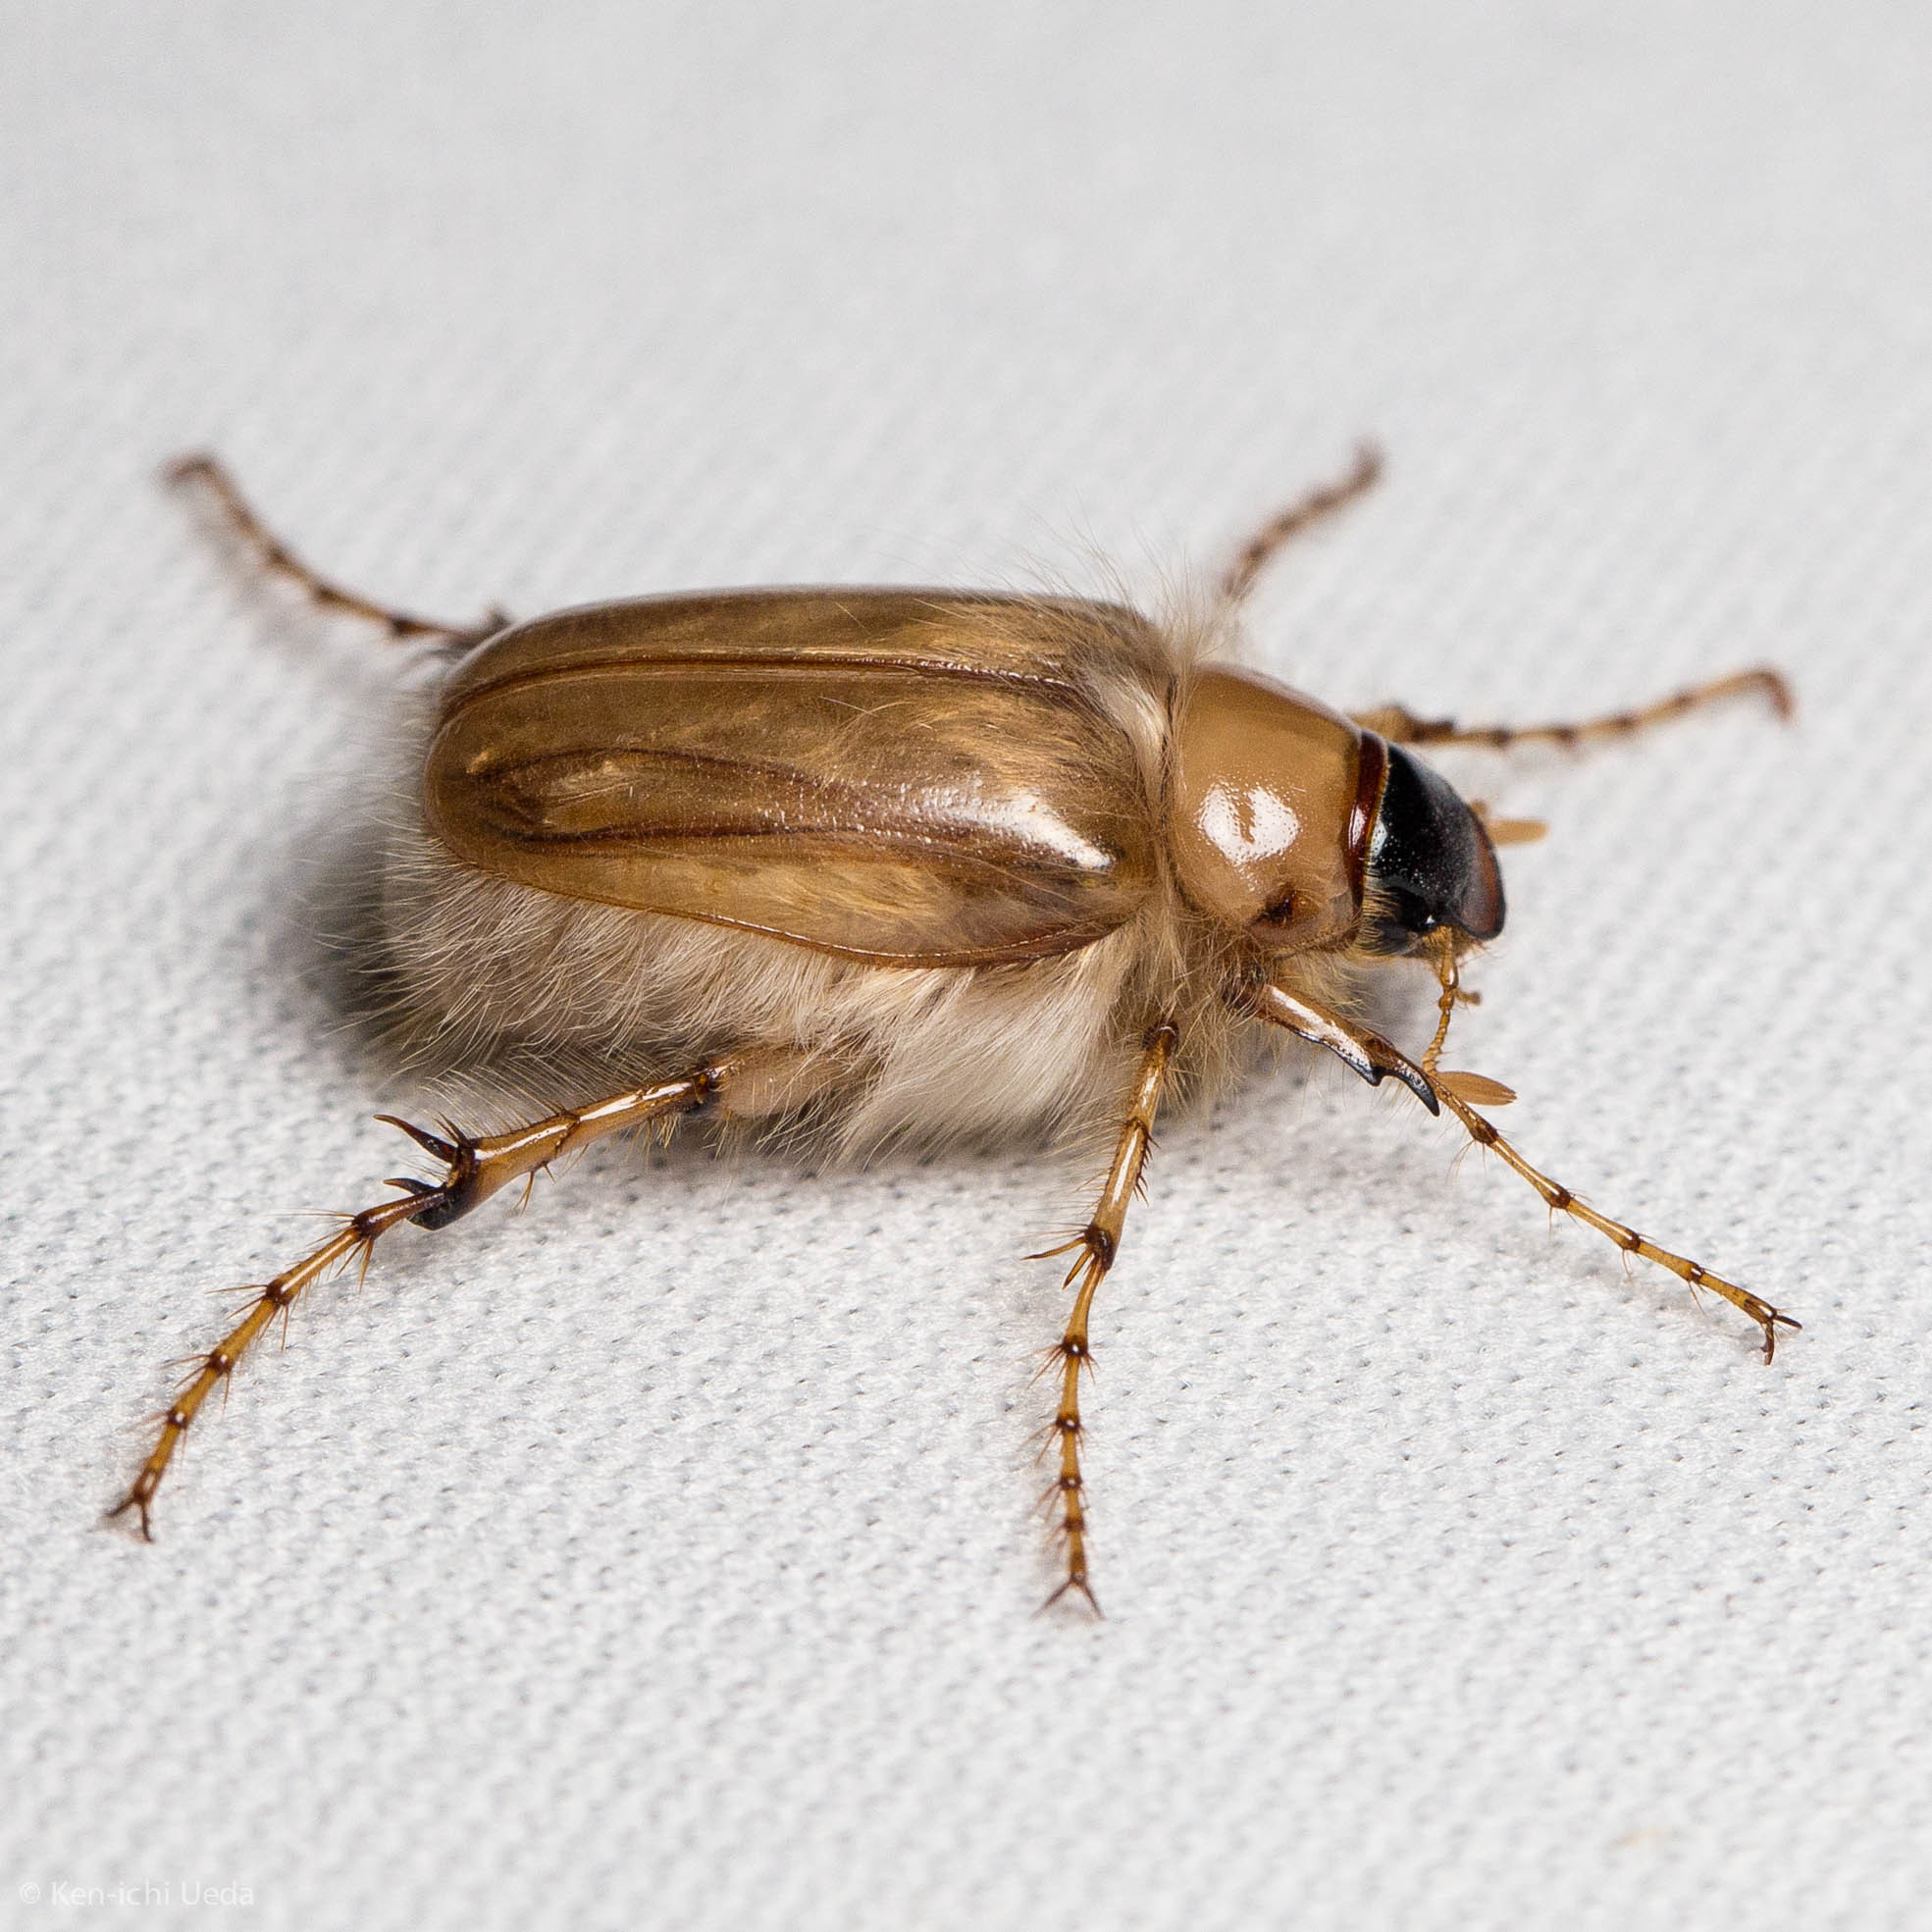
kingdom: Animalia
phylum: Arthropoda
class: Insecta
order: Coleoptera
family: Scarabaeidae
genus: Phobetus
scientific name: Phobetus mojavus
